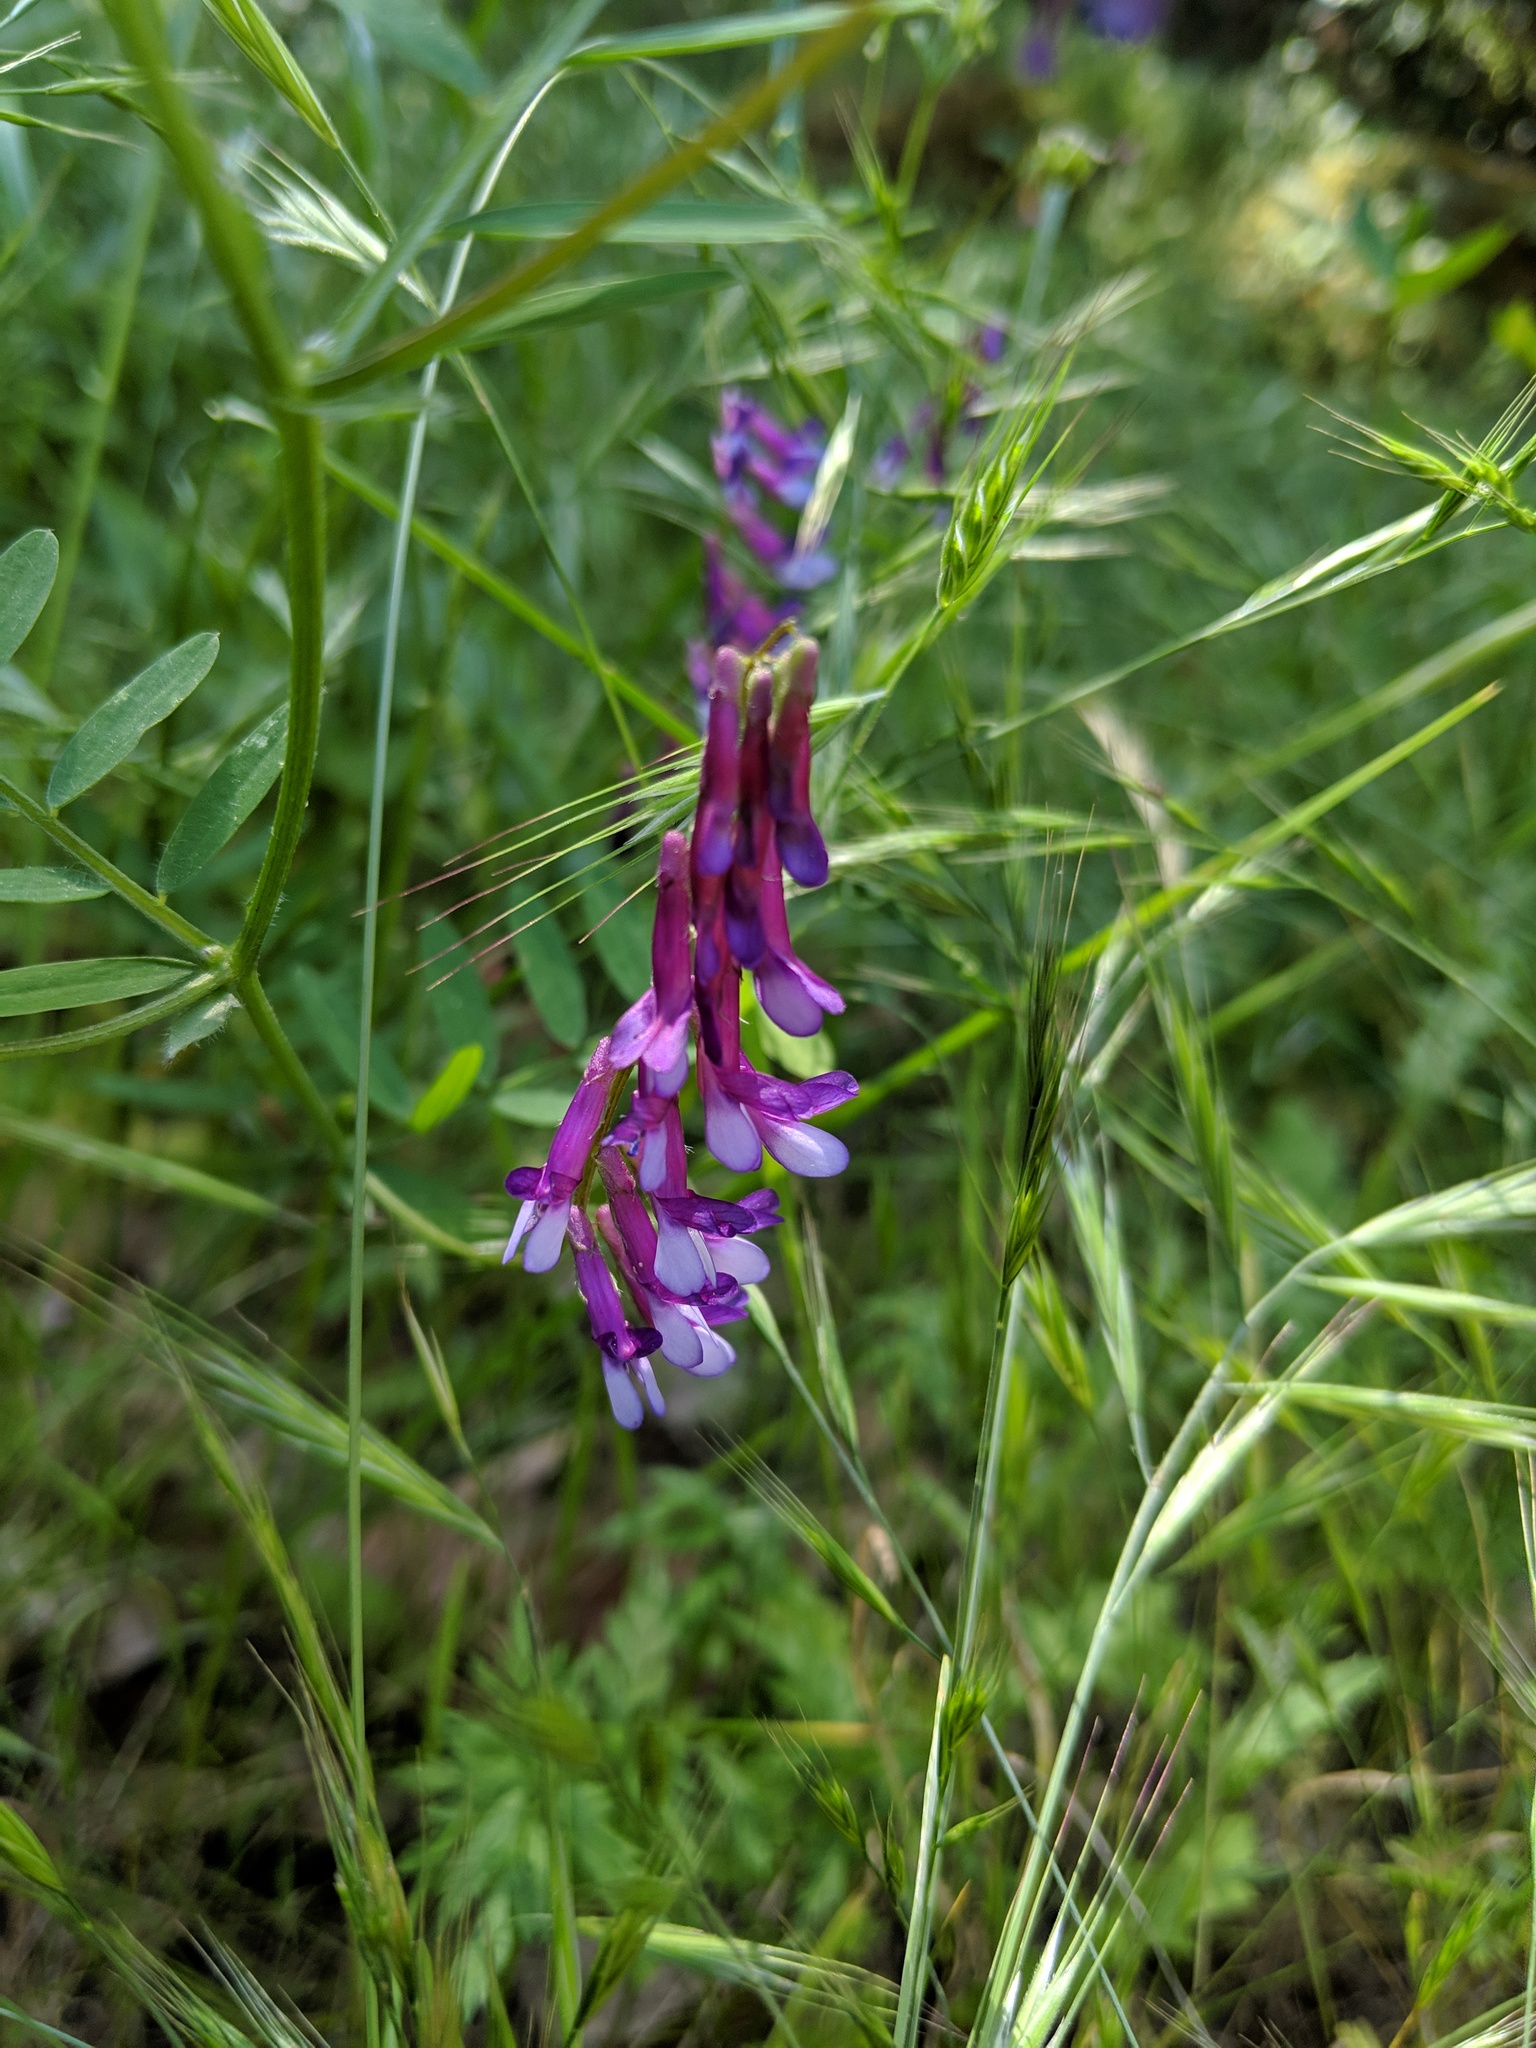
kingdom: Plantae
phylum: Tracheophyta
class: Magnoliopsida
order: Fabales
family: Fabaceae
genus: Vicia
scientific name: Vicia villosa
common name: Fodder vetch
